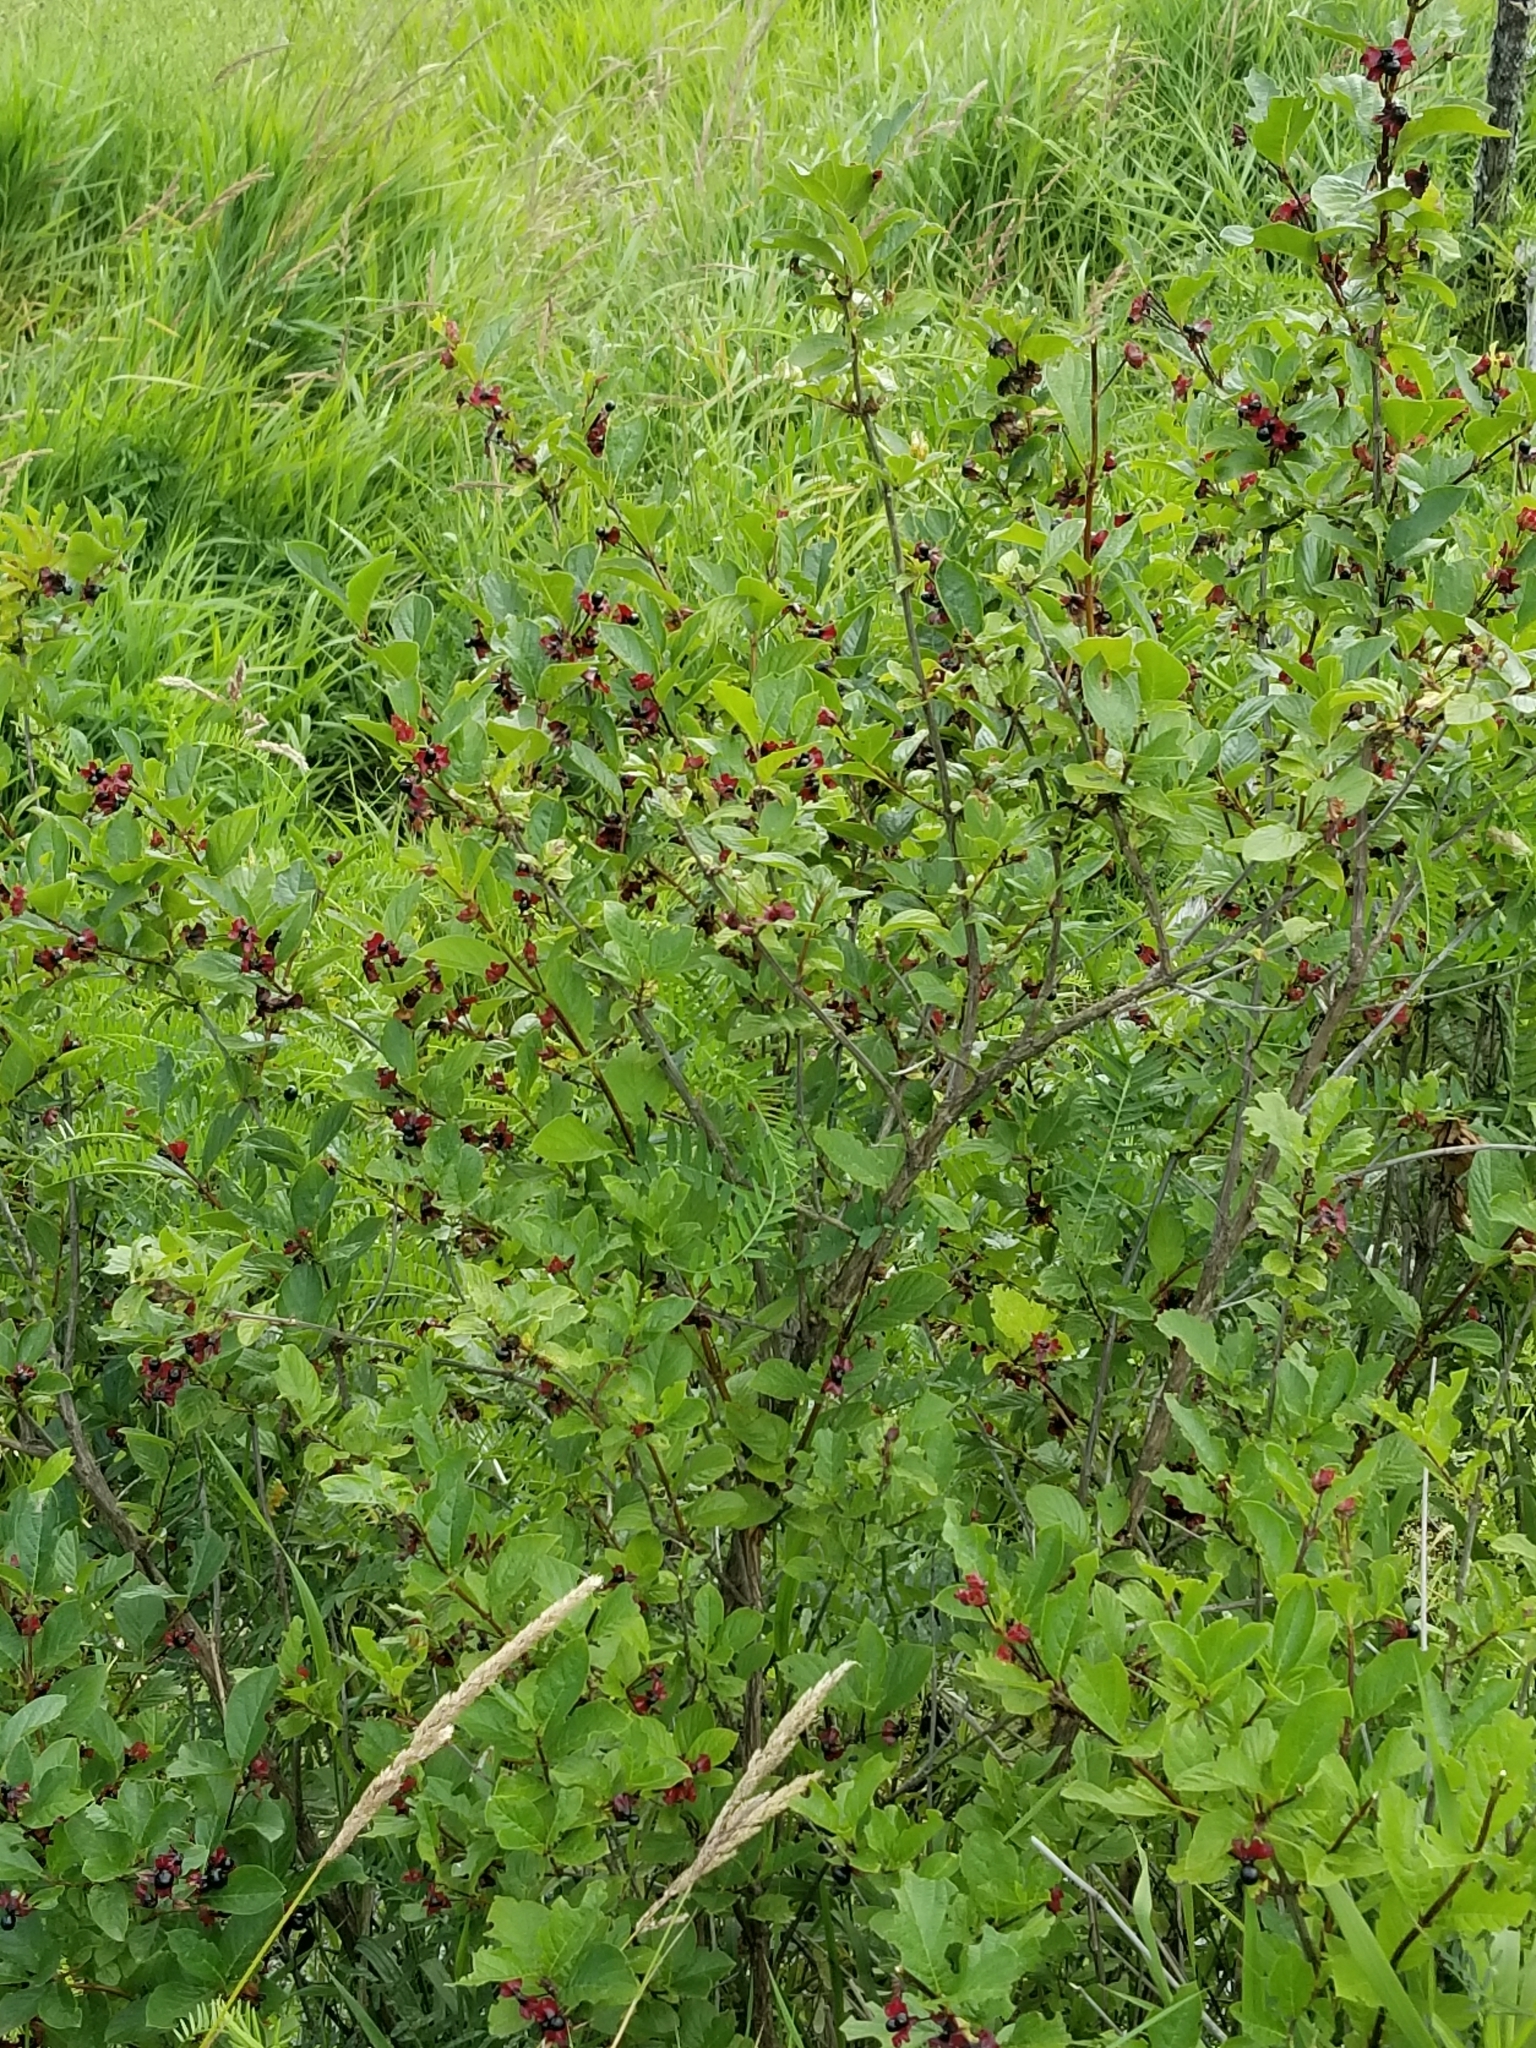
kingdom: Plantae
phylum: Tracheophyta
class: Magnoliopsida
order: Dipsacales
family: Caprifoliaceae
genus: Lonicera
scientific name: Lonicera involucrata
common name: Californian honeysuckle
